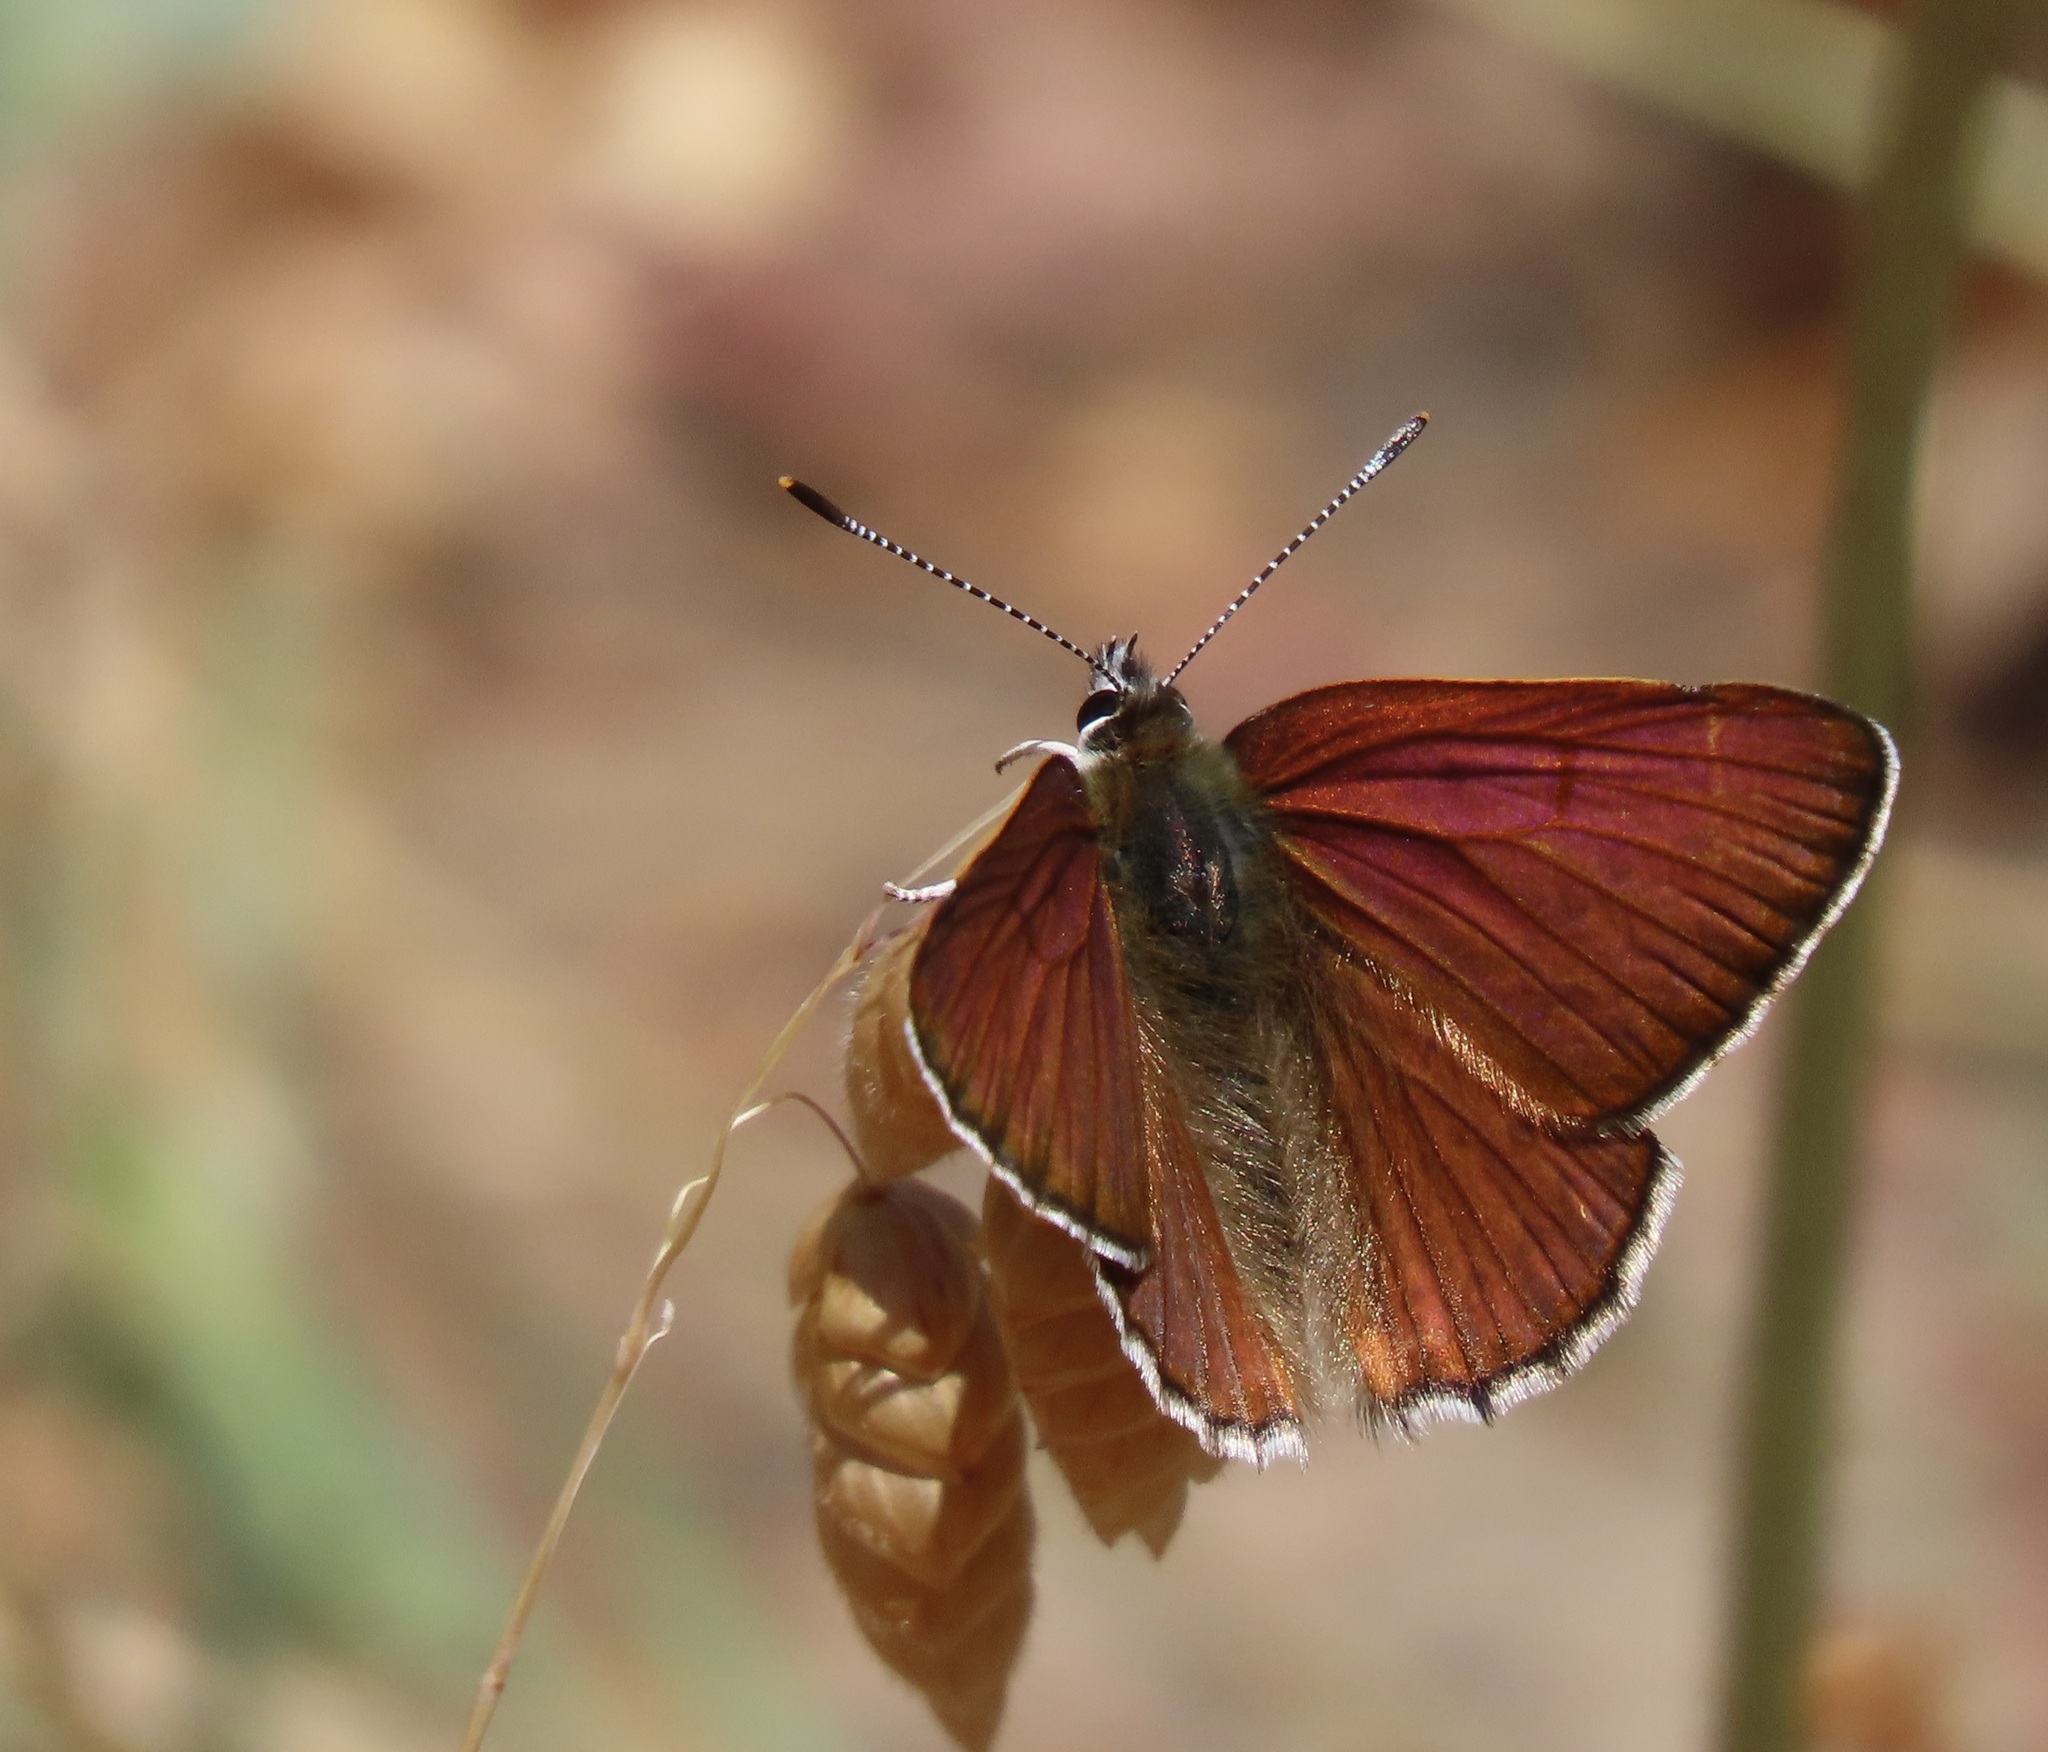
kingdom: Animalia
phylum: Arthropoda
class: Insecta
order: Lepidoptera
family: Lycaenidae
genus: Tharsalea
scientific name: Tharsalea gorgon
